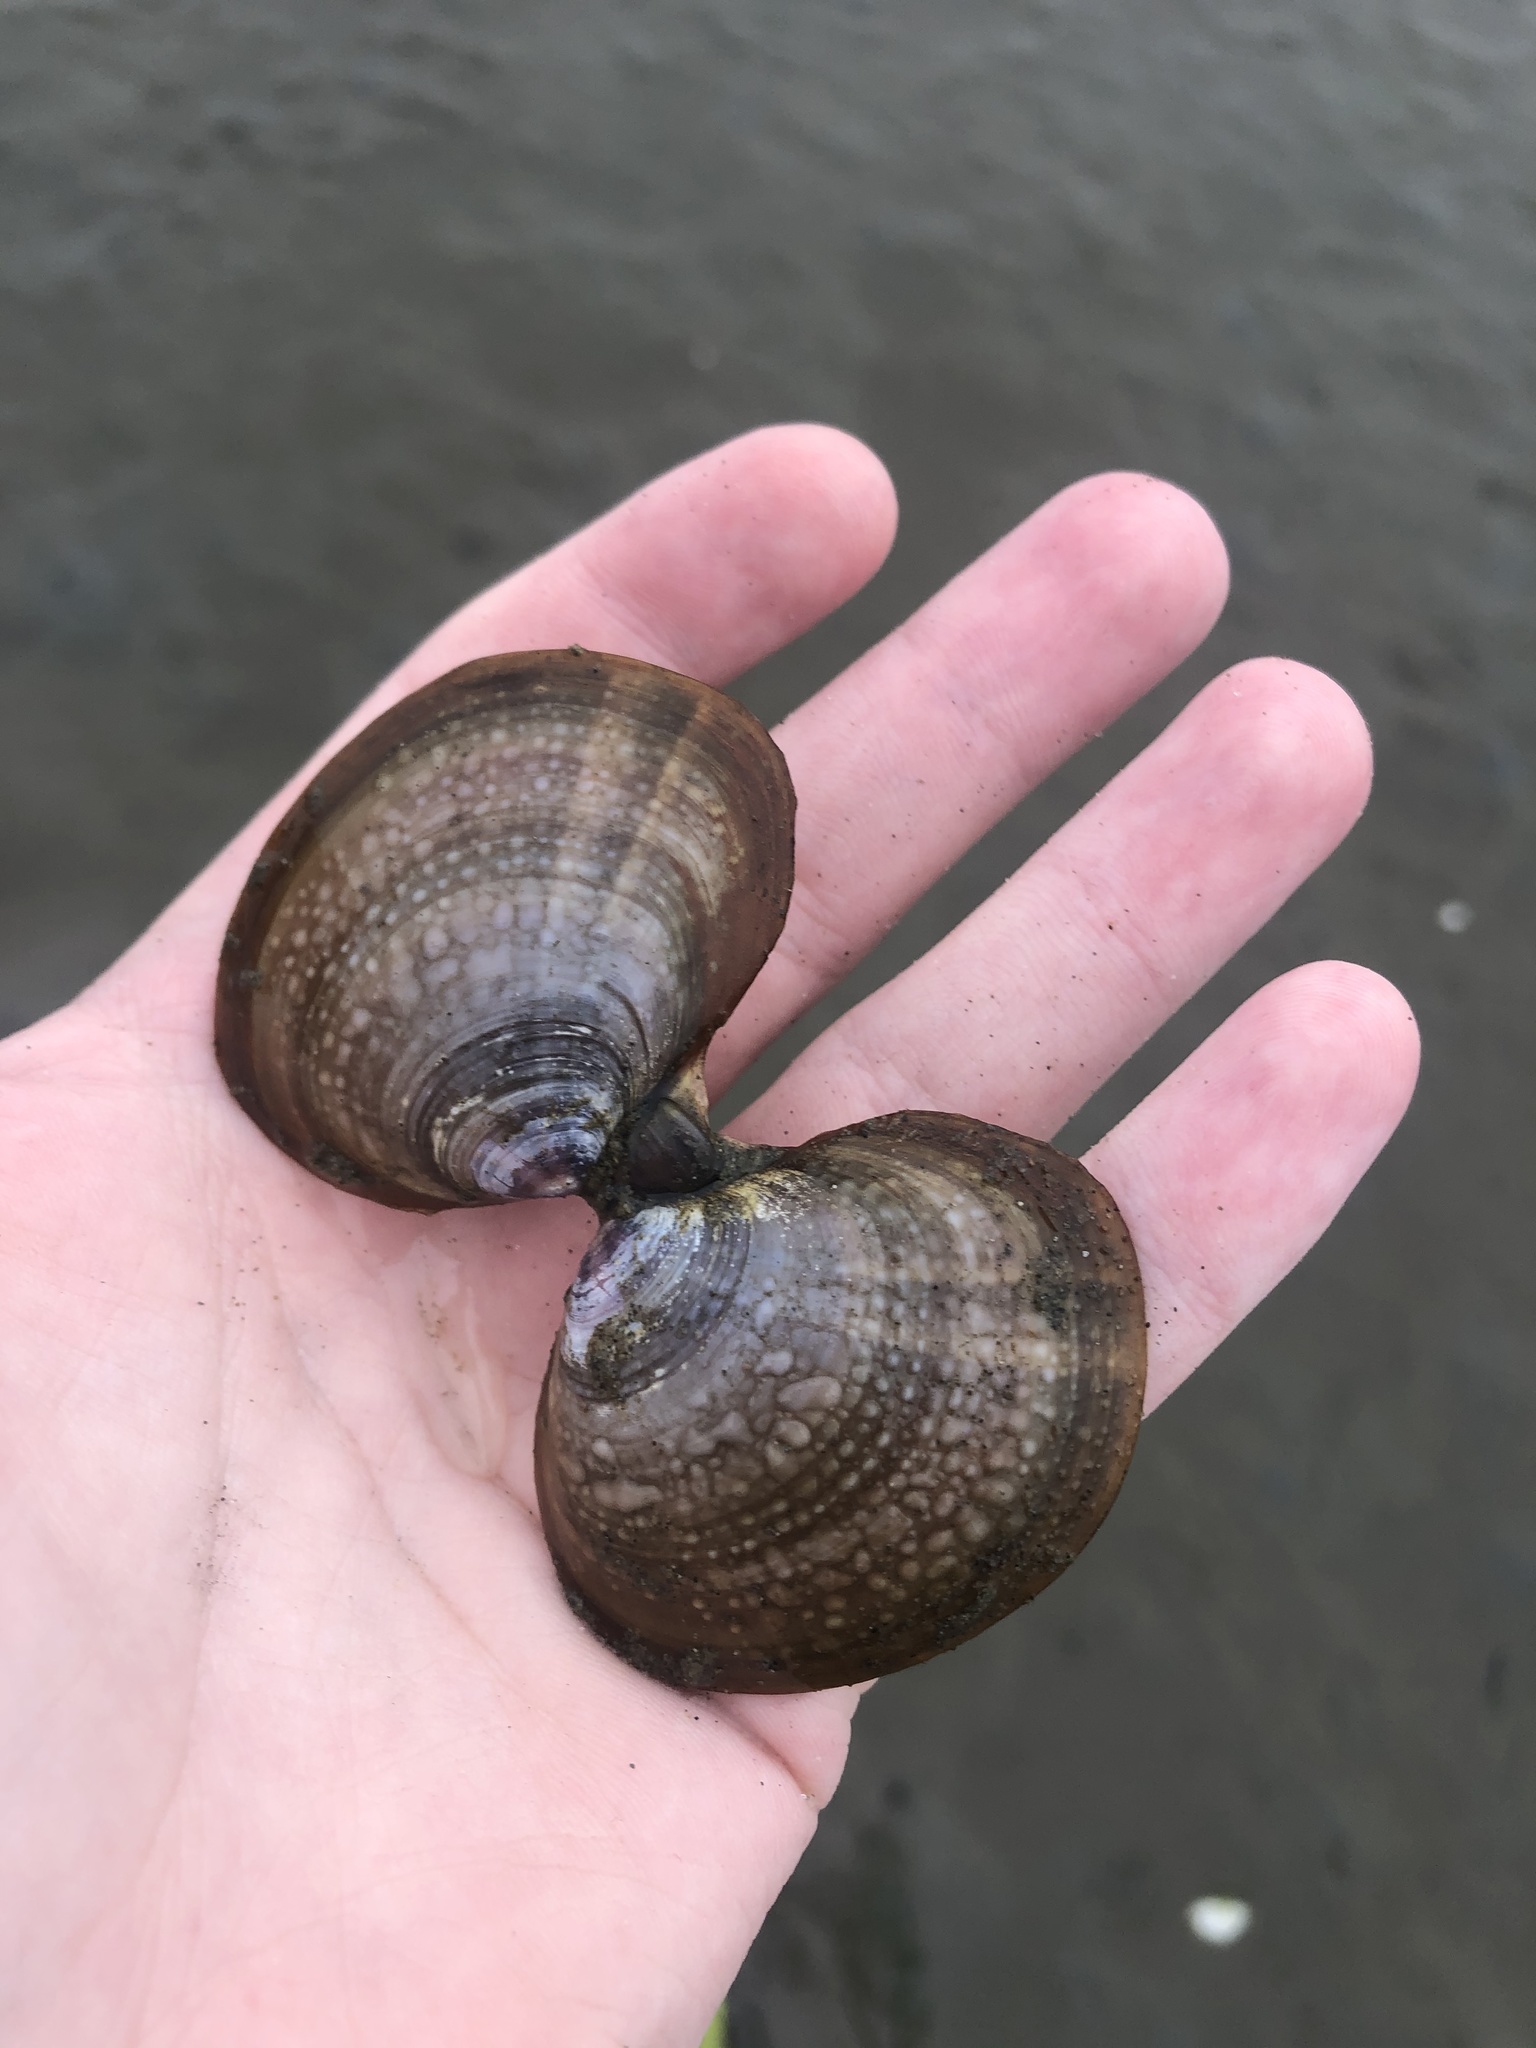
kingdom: Animalia
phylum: Mollusca
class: Bivalvia
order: Cardiida
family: Psammobiidae
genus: Nuttallia
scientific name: Nuttallia obscurata
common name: Purple mahogany-clam
